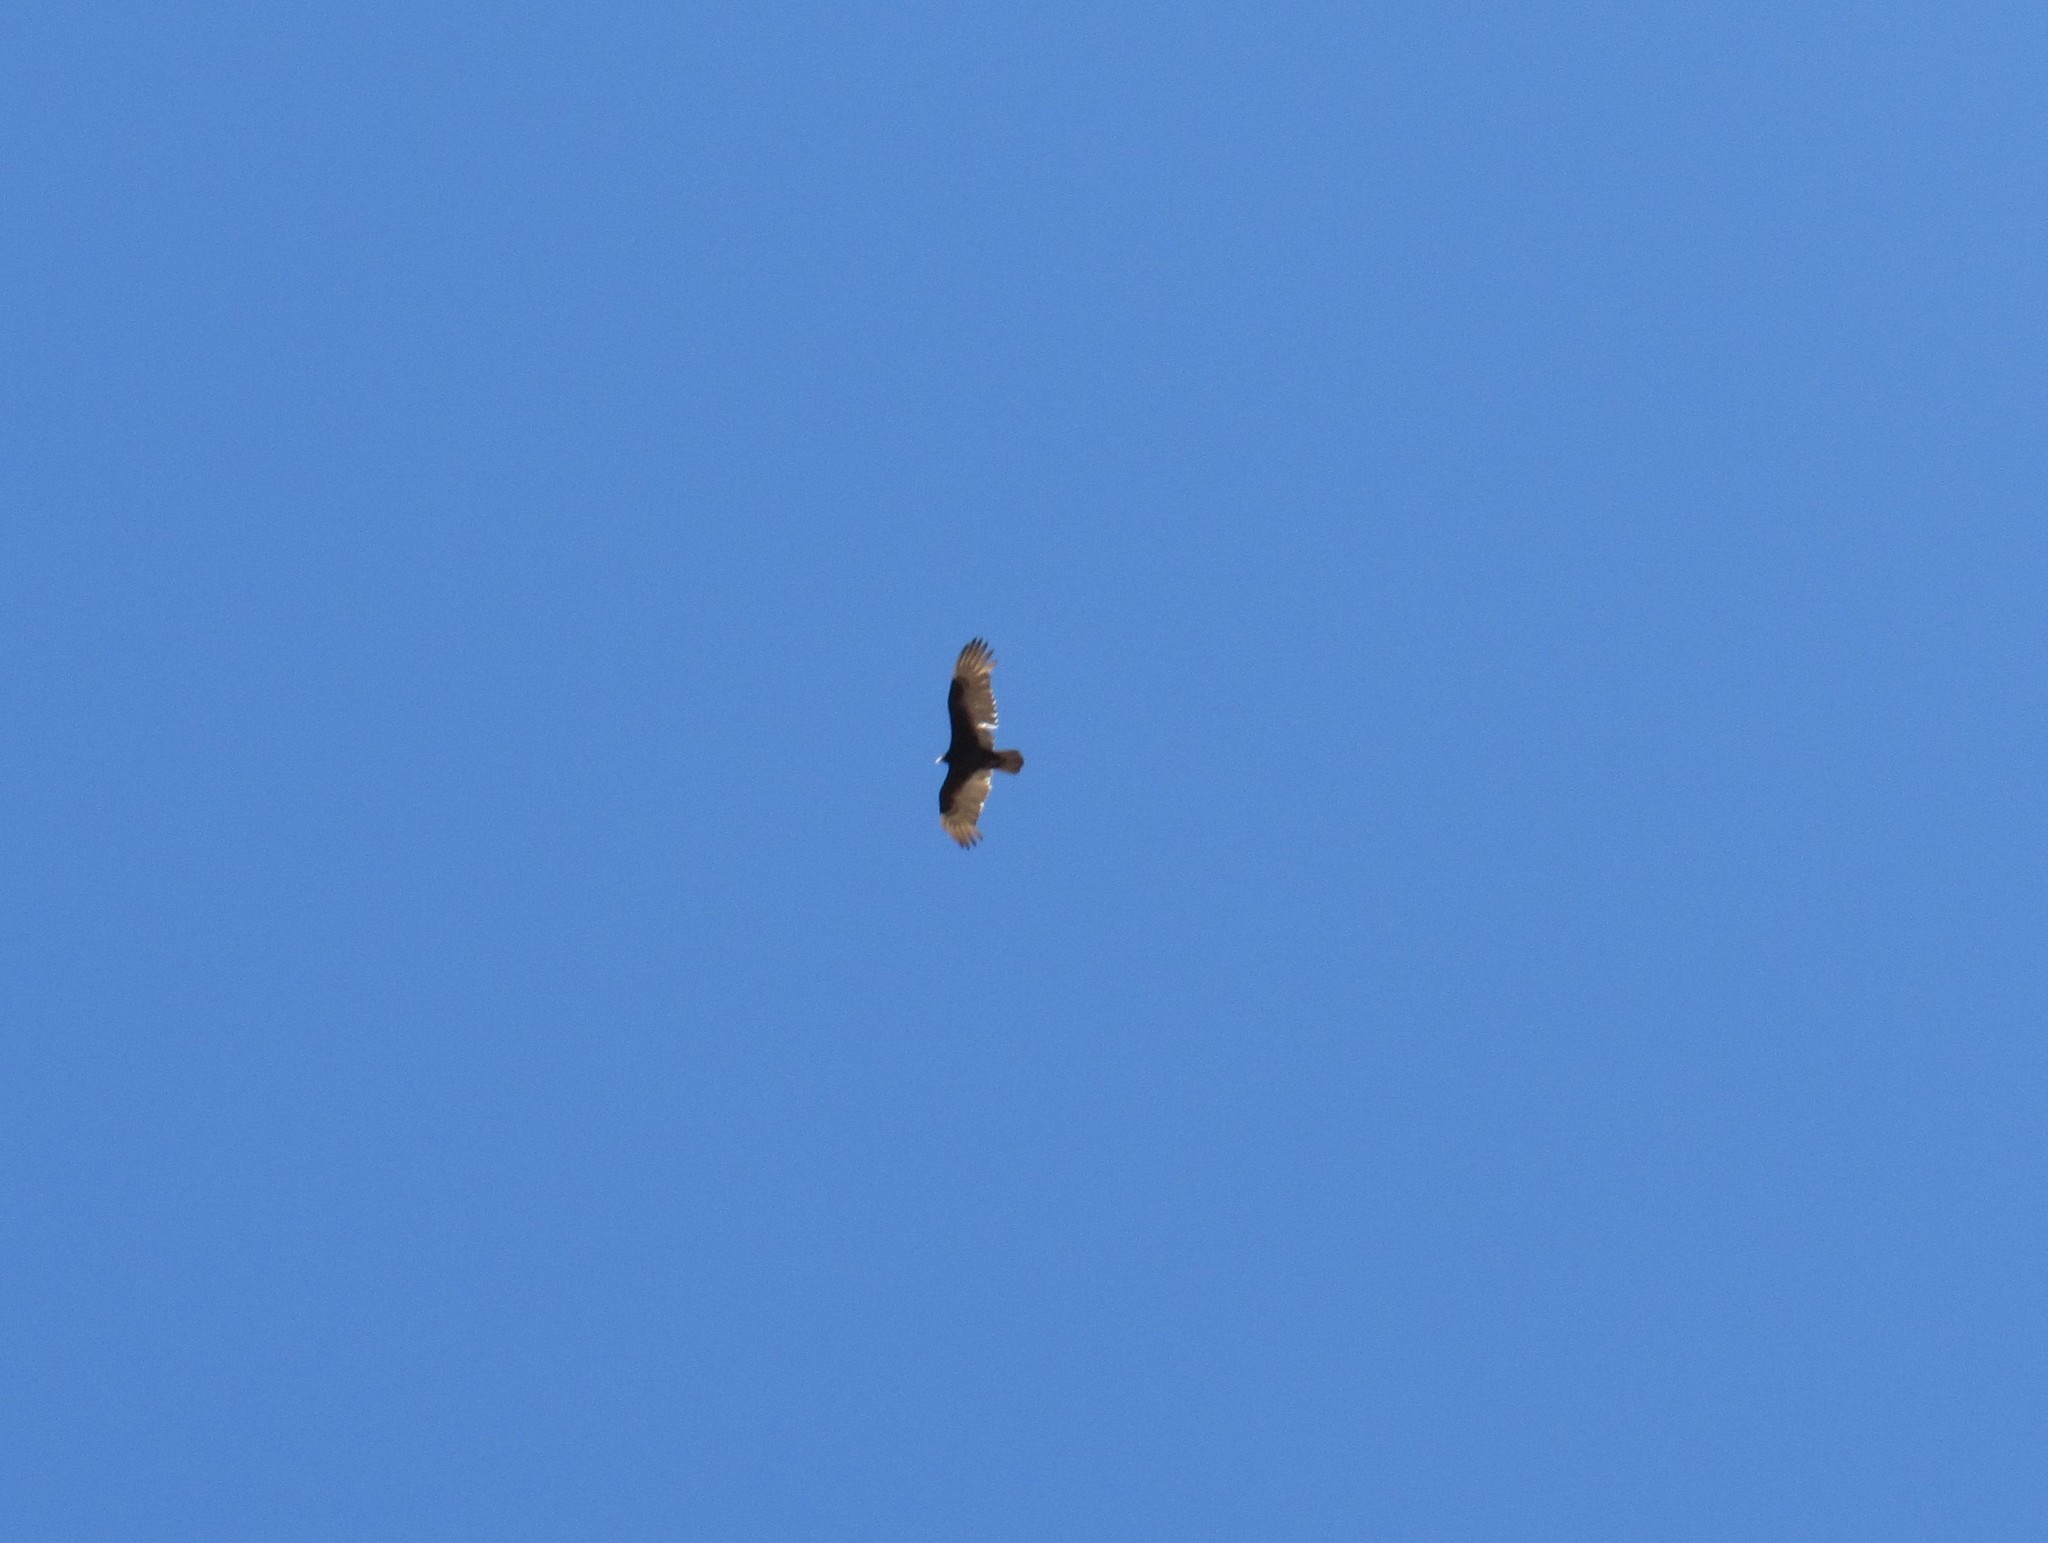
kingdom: Animalia
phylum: Chordata
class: Aves
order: Accipitriformes
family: Cathartidae
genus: Cathartes
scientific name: Cathartes aura
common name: Turkey vulture
